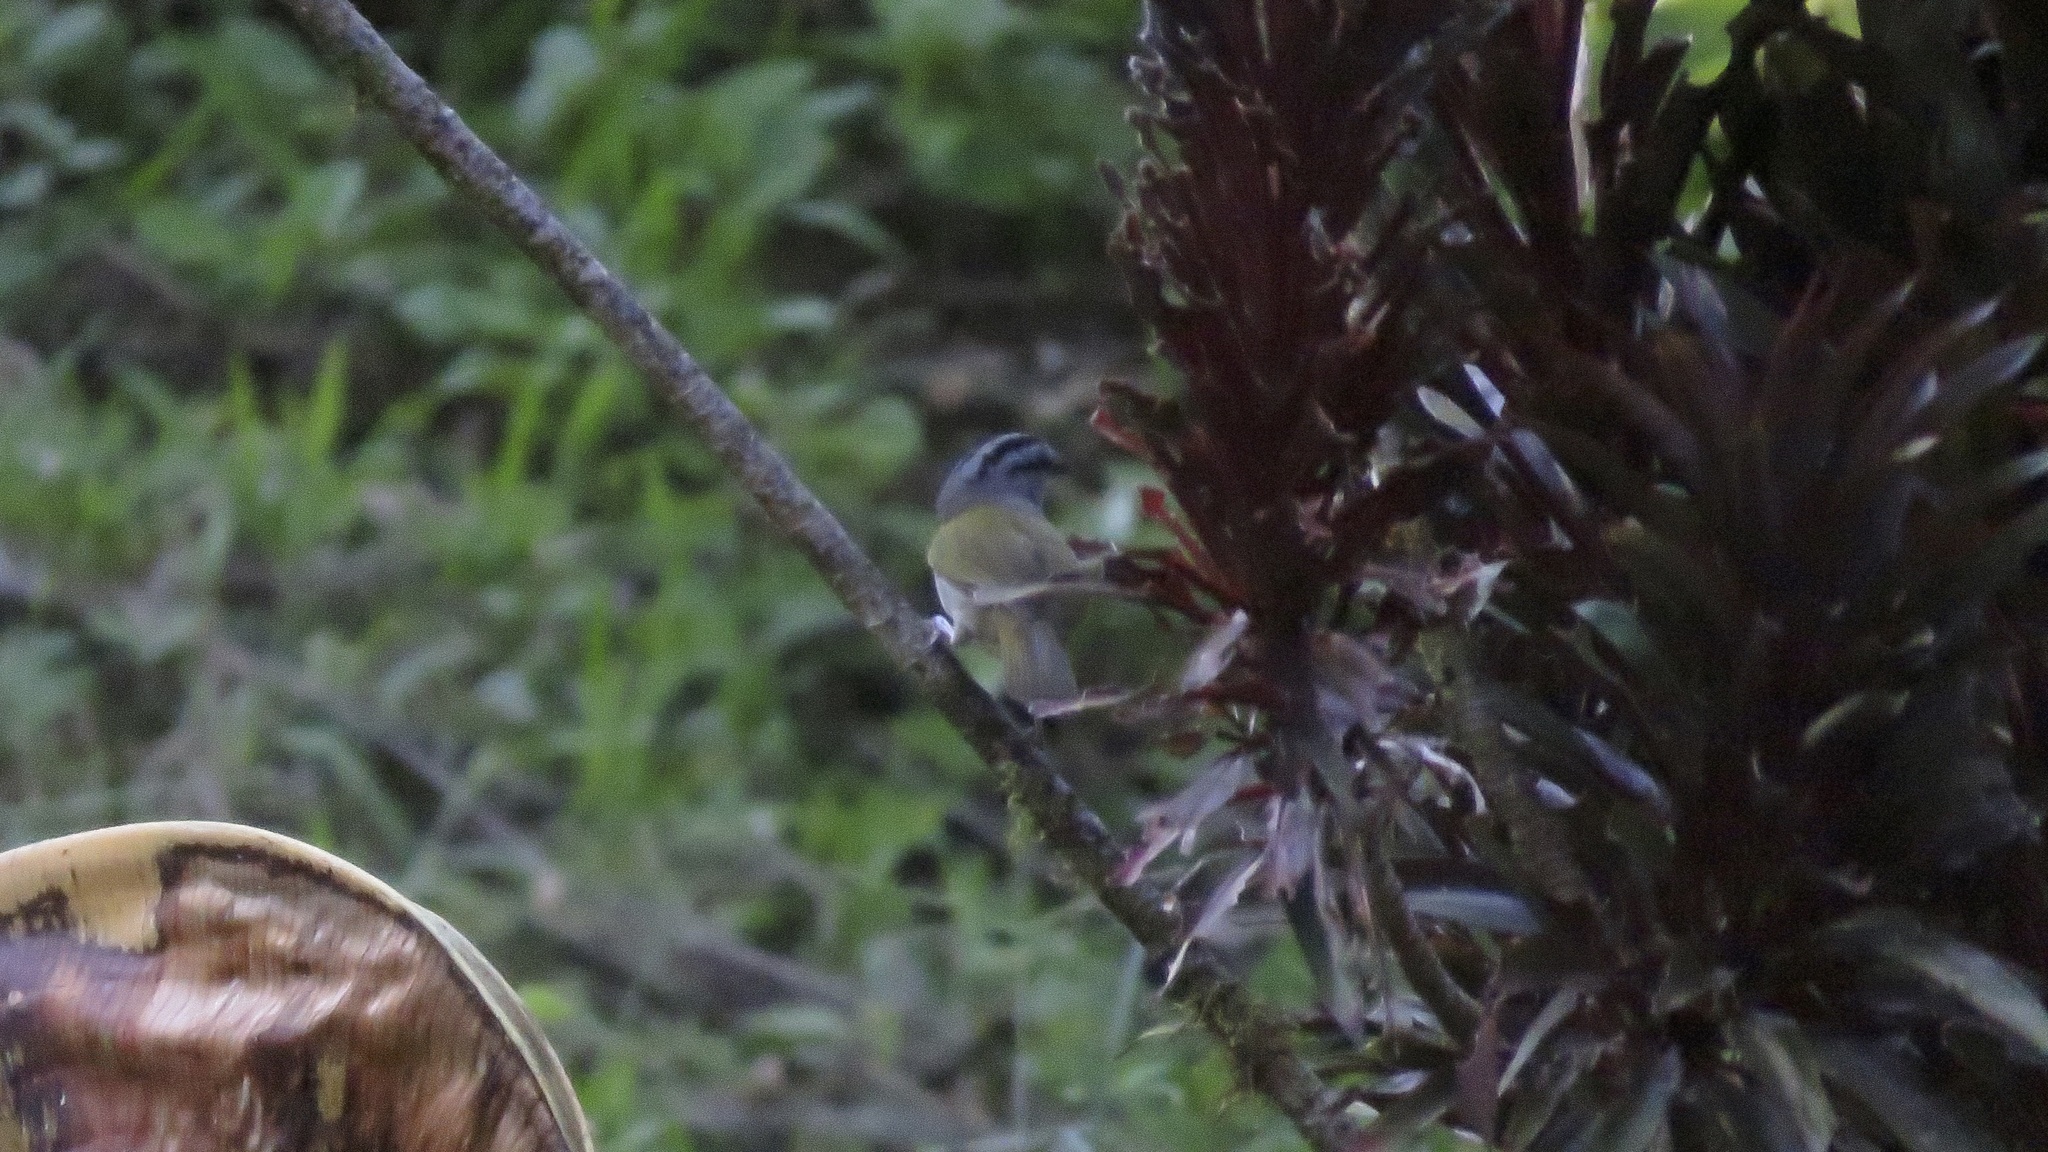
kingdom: Animalia
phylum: Chordata
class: Aves
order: Passeriformes
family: Passerellidae
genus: Arremonops
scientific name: Arremonops conirostris
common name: Black-striped sparrow
